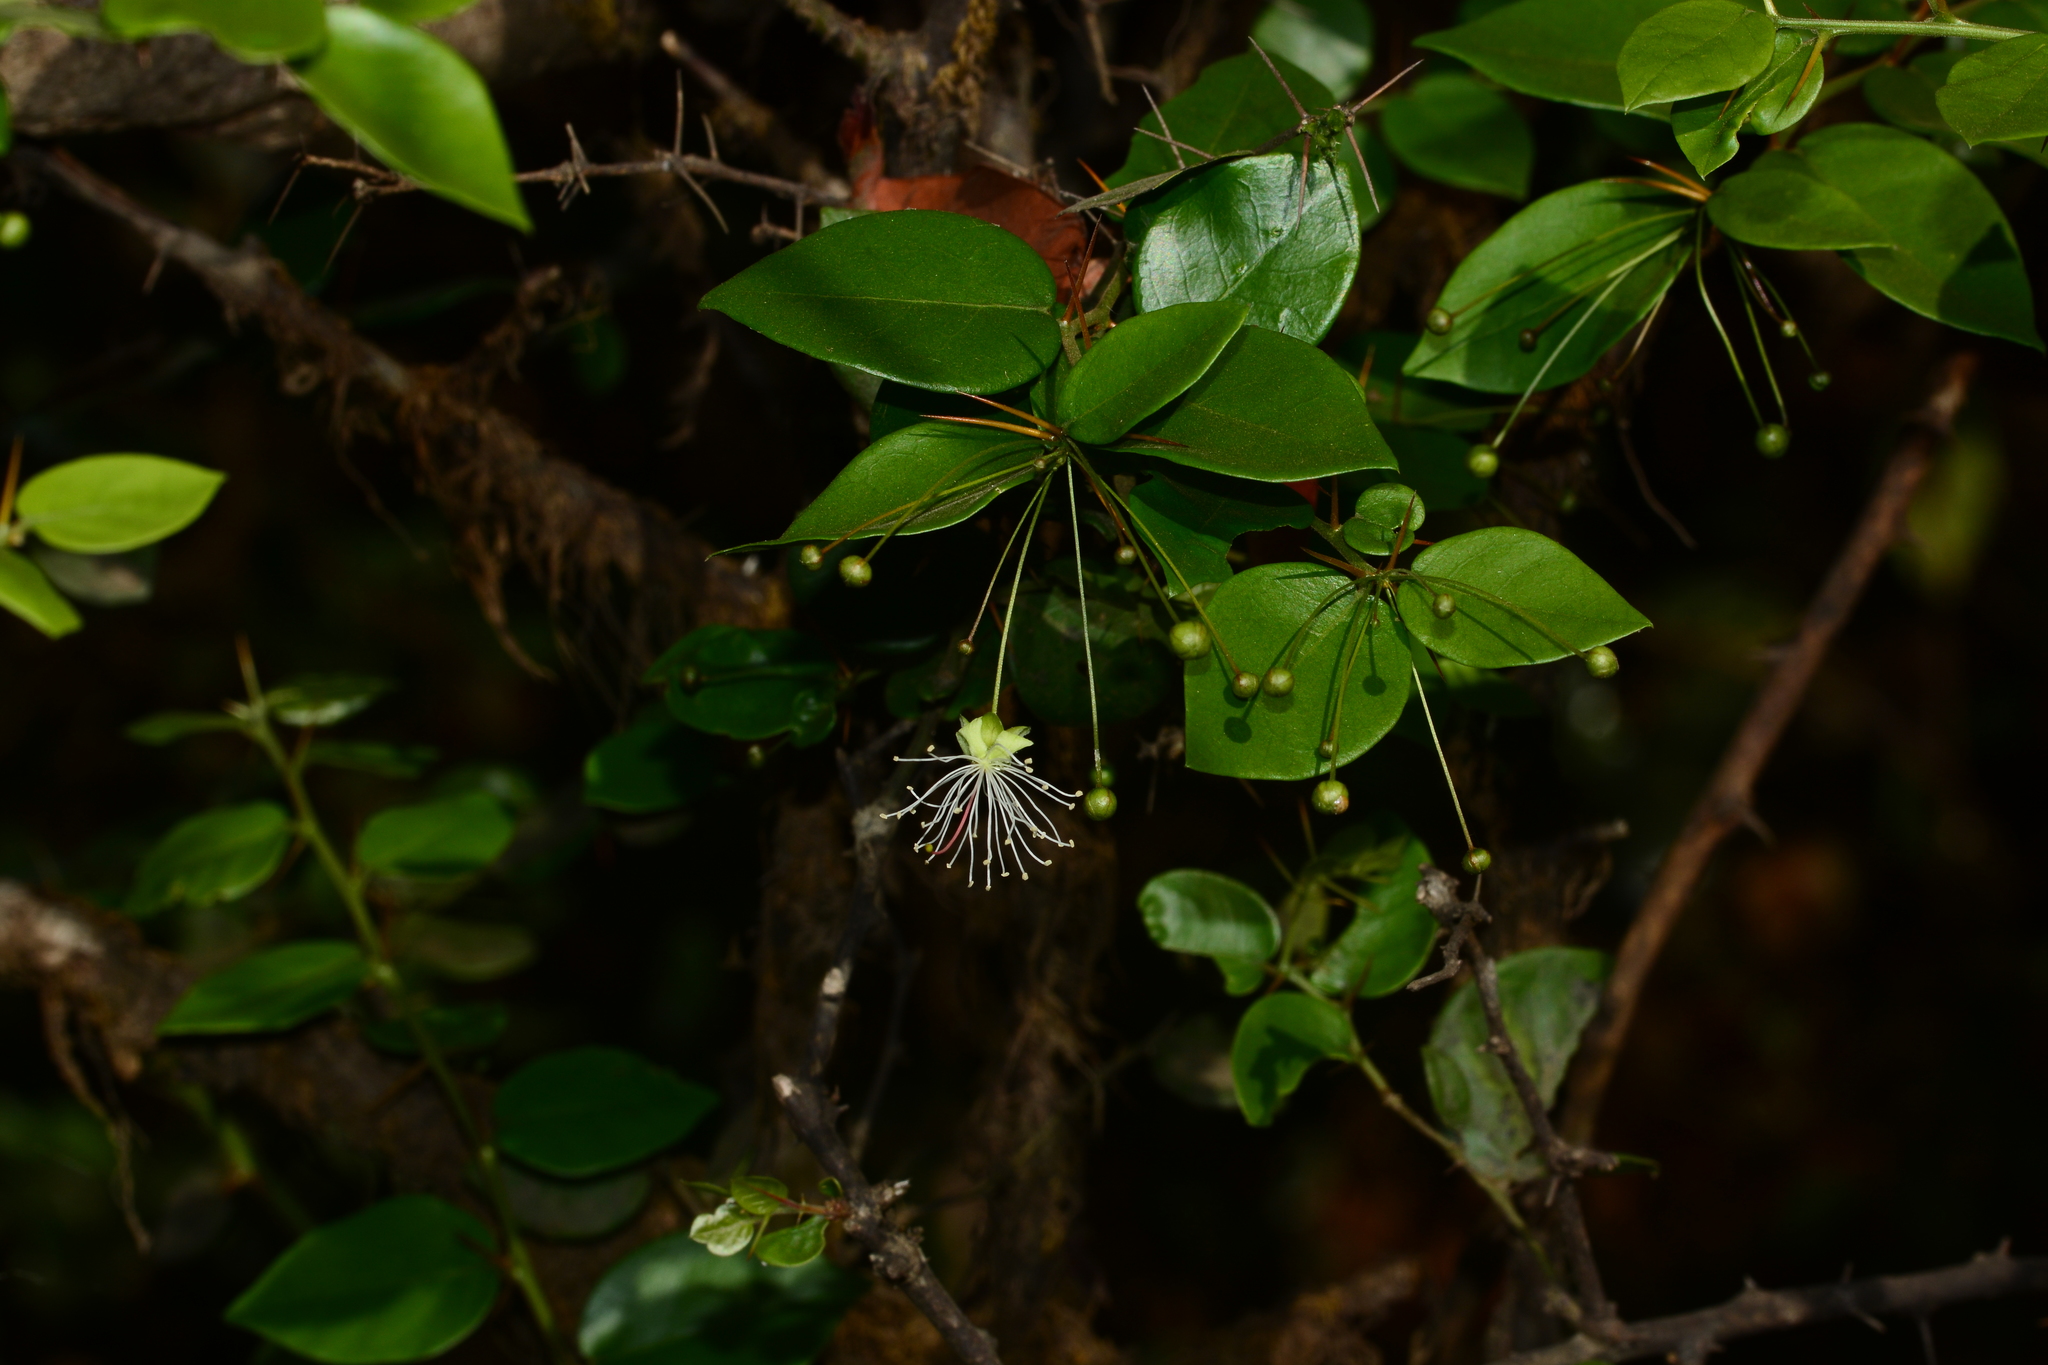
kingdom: Plantae
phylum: Tracheophyta
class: Magnoliopsida
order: Brassicales
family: Capparaceae
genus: Capparis
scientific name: Capparis rotundifolia
